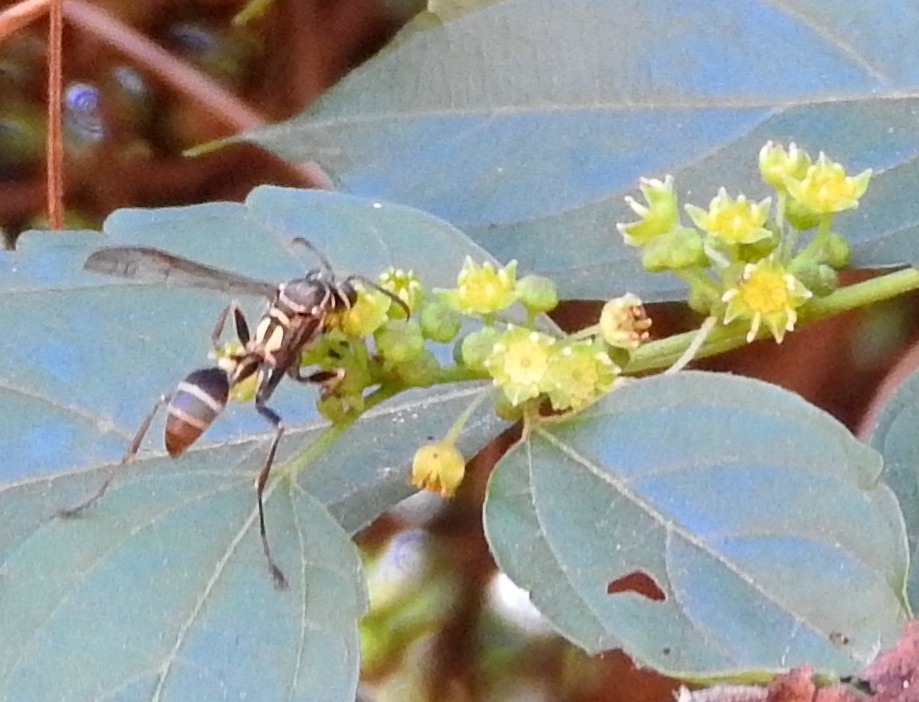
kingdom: Animalia
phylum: Arthropoda
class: Insecta
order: Hymenoptera
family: Vespidae
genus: Mischocyttarus
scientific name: Mischocyttarus mexicanus
